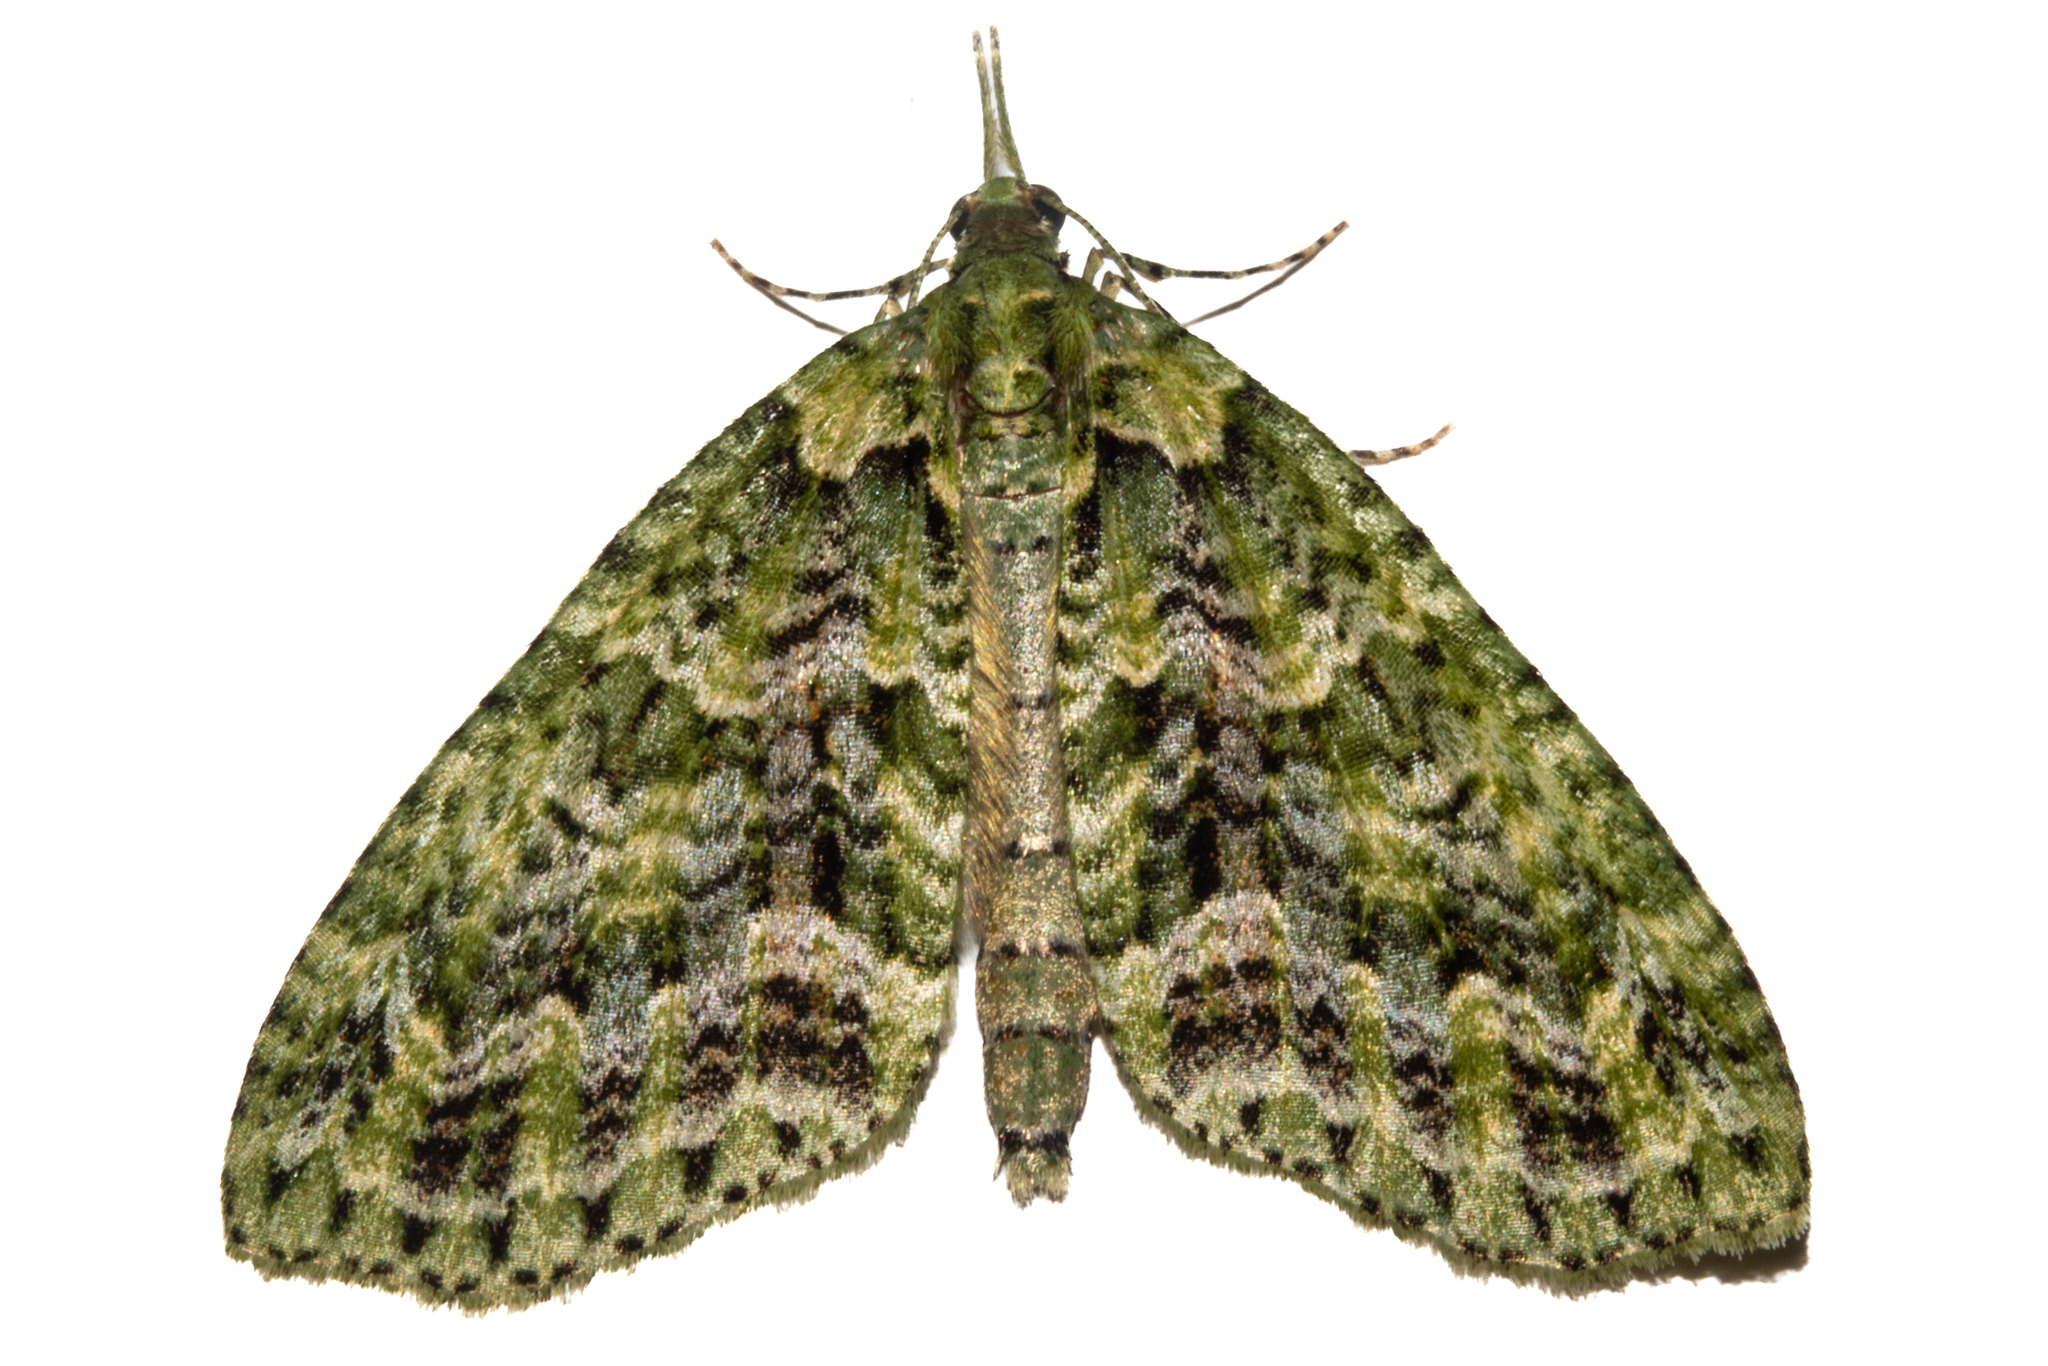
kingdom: Animalia
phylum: Arthropoda
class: Insecta
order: Lepidoptera
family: Geometridae
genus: Tatosoma
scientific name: Tatosoma tipulata
